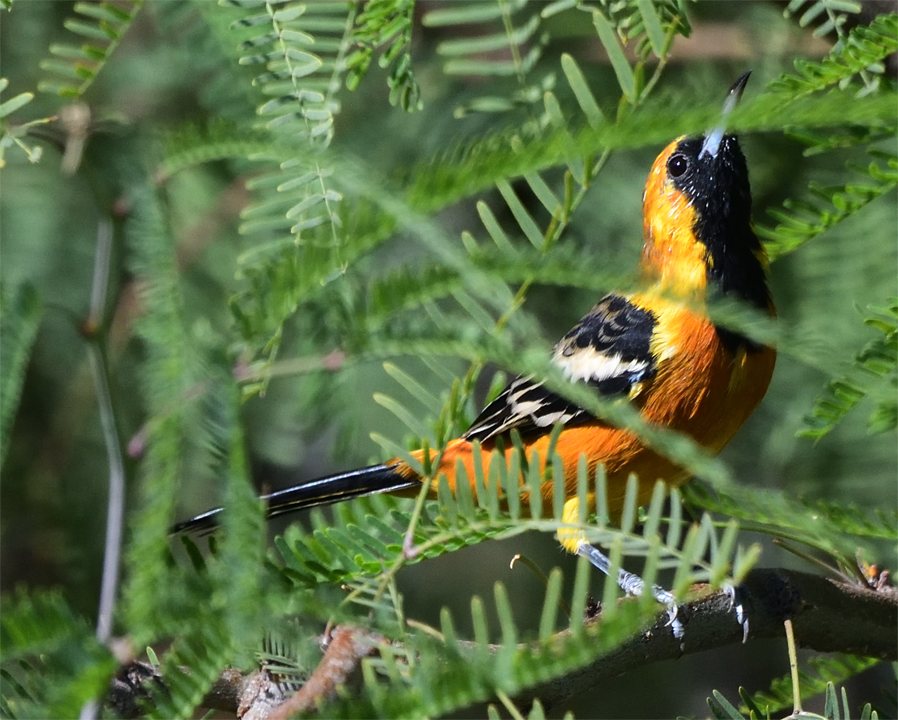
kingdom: Animalia
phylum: Chordata
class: Aves
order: Passeriformes
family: Icteridae
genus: Icterus
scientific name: Icterus cucullatus
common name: Hooded oriole
